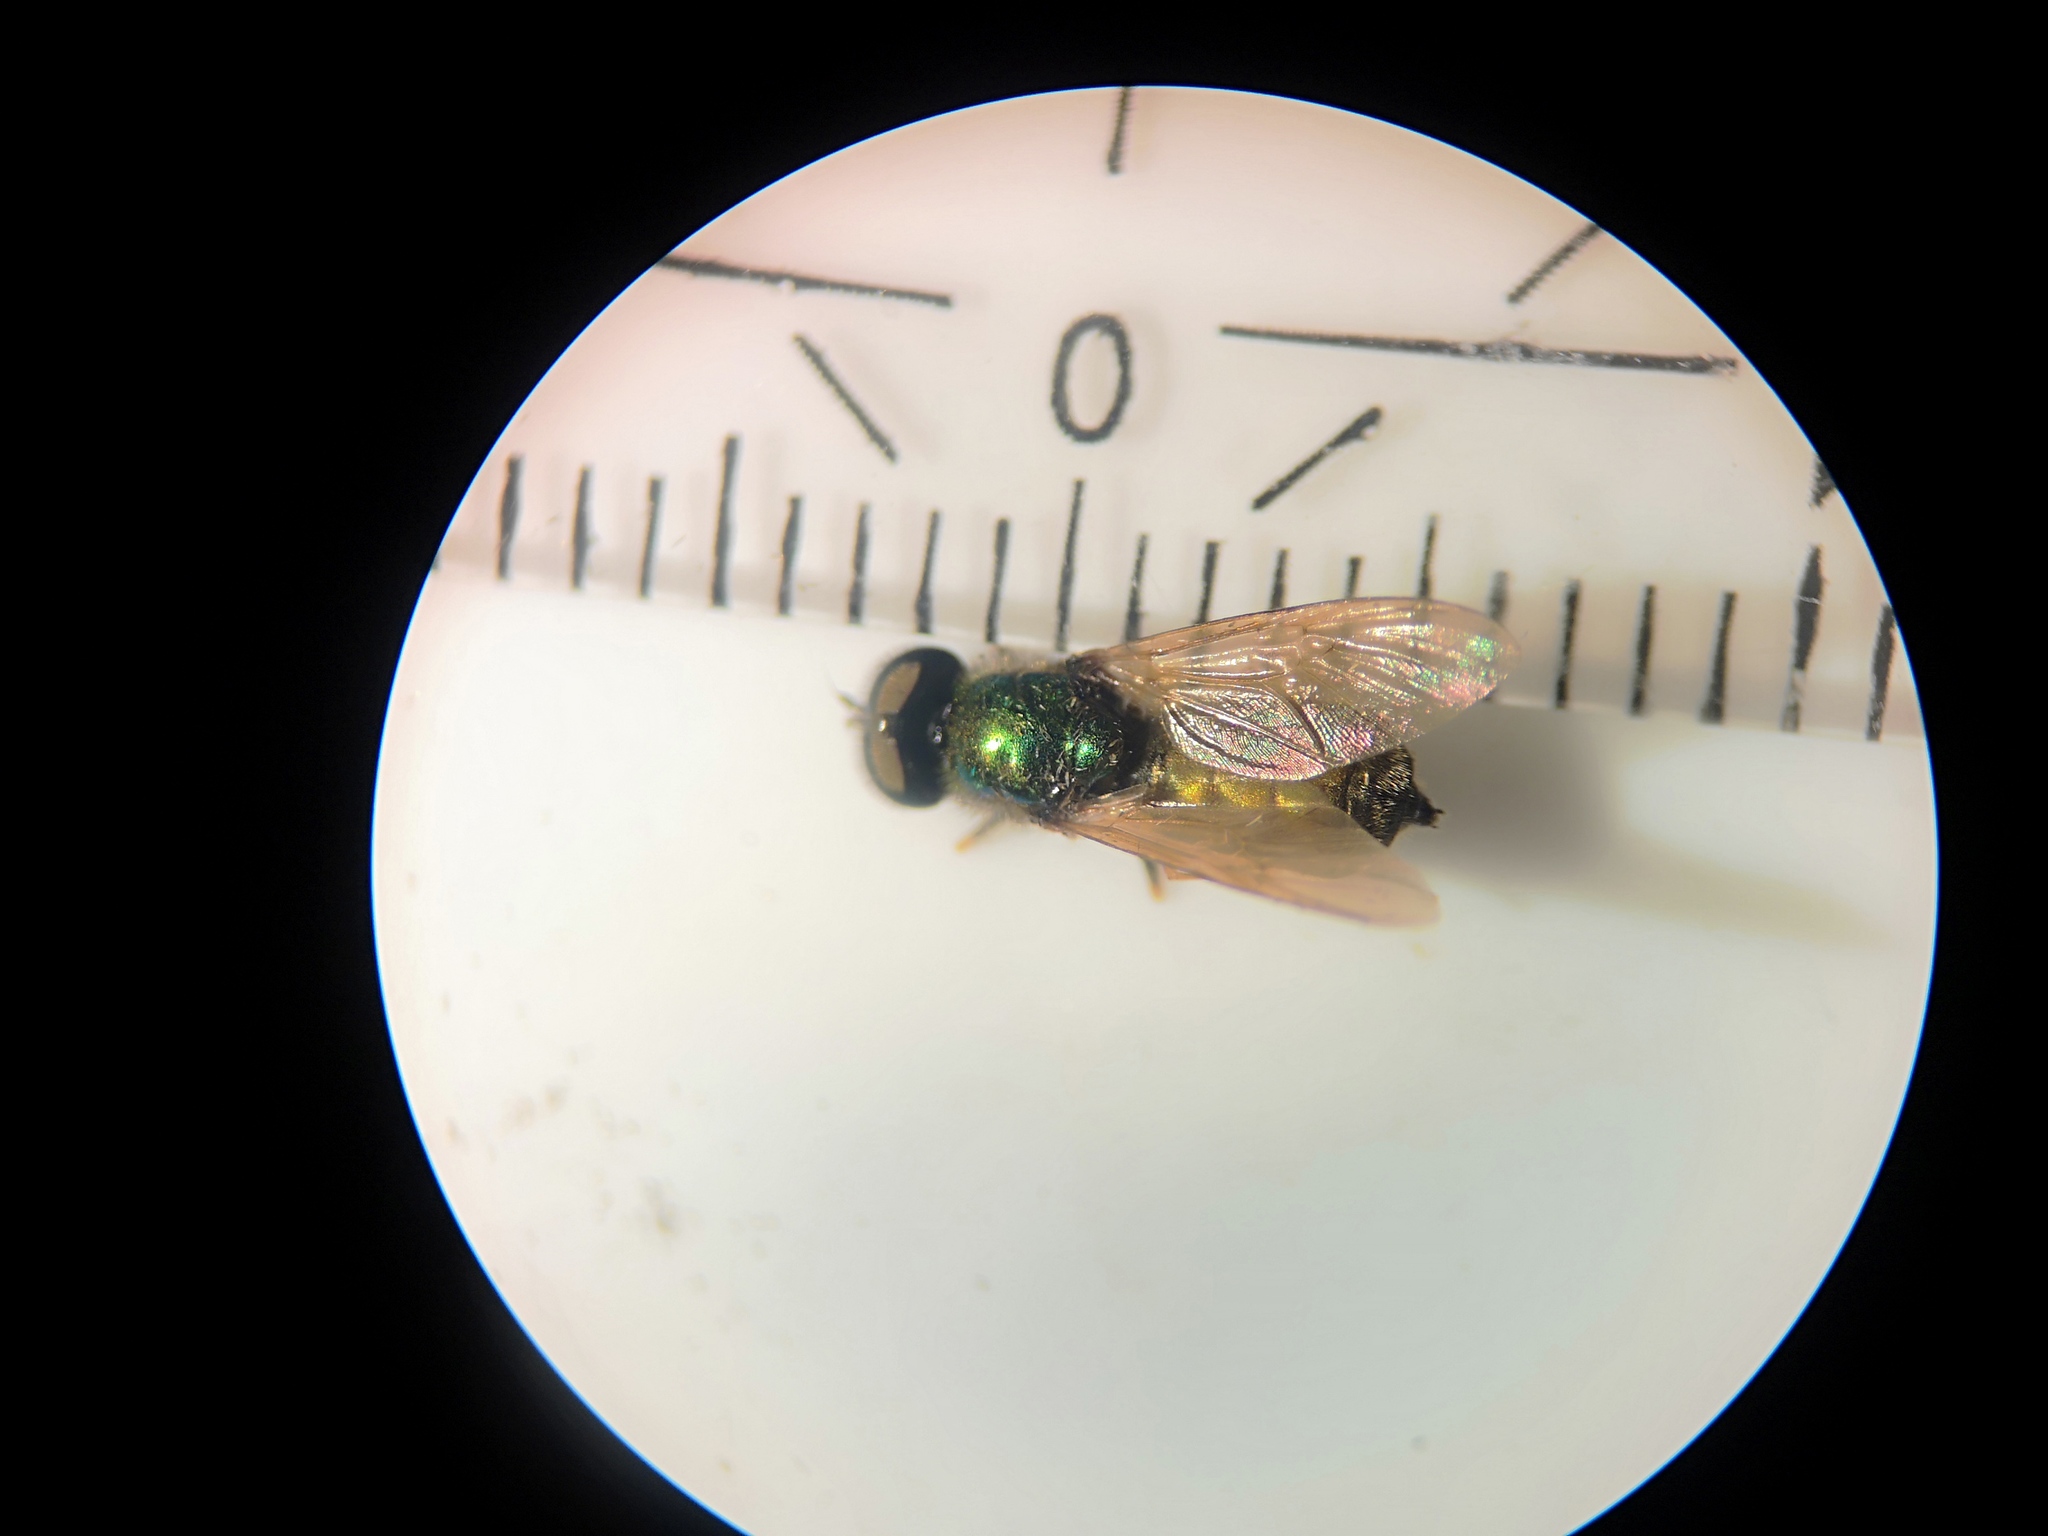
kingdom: Animalia
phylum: Arthropoda
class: Insecta
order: Diptera
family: Stratiomyidae
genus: Chloromyia
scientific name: Chloromyia formosa
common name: Soldier fly
